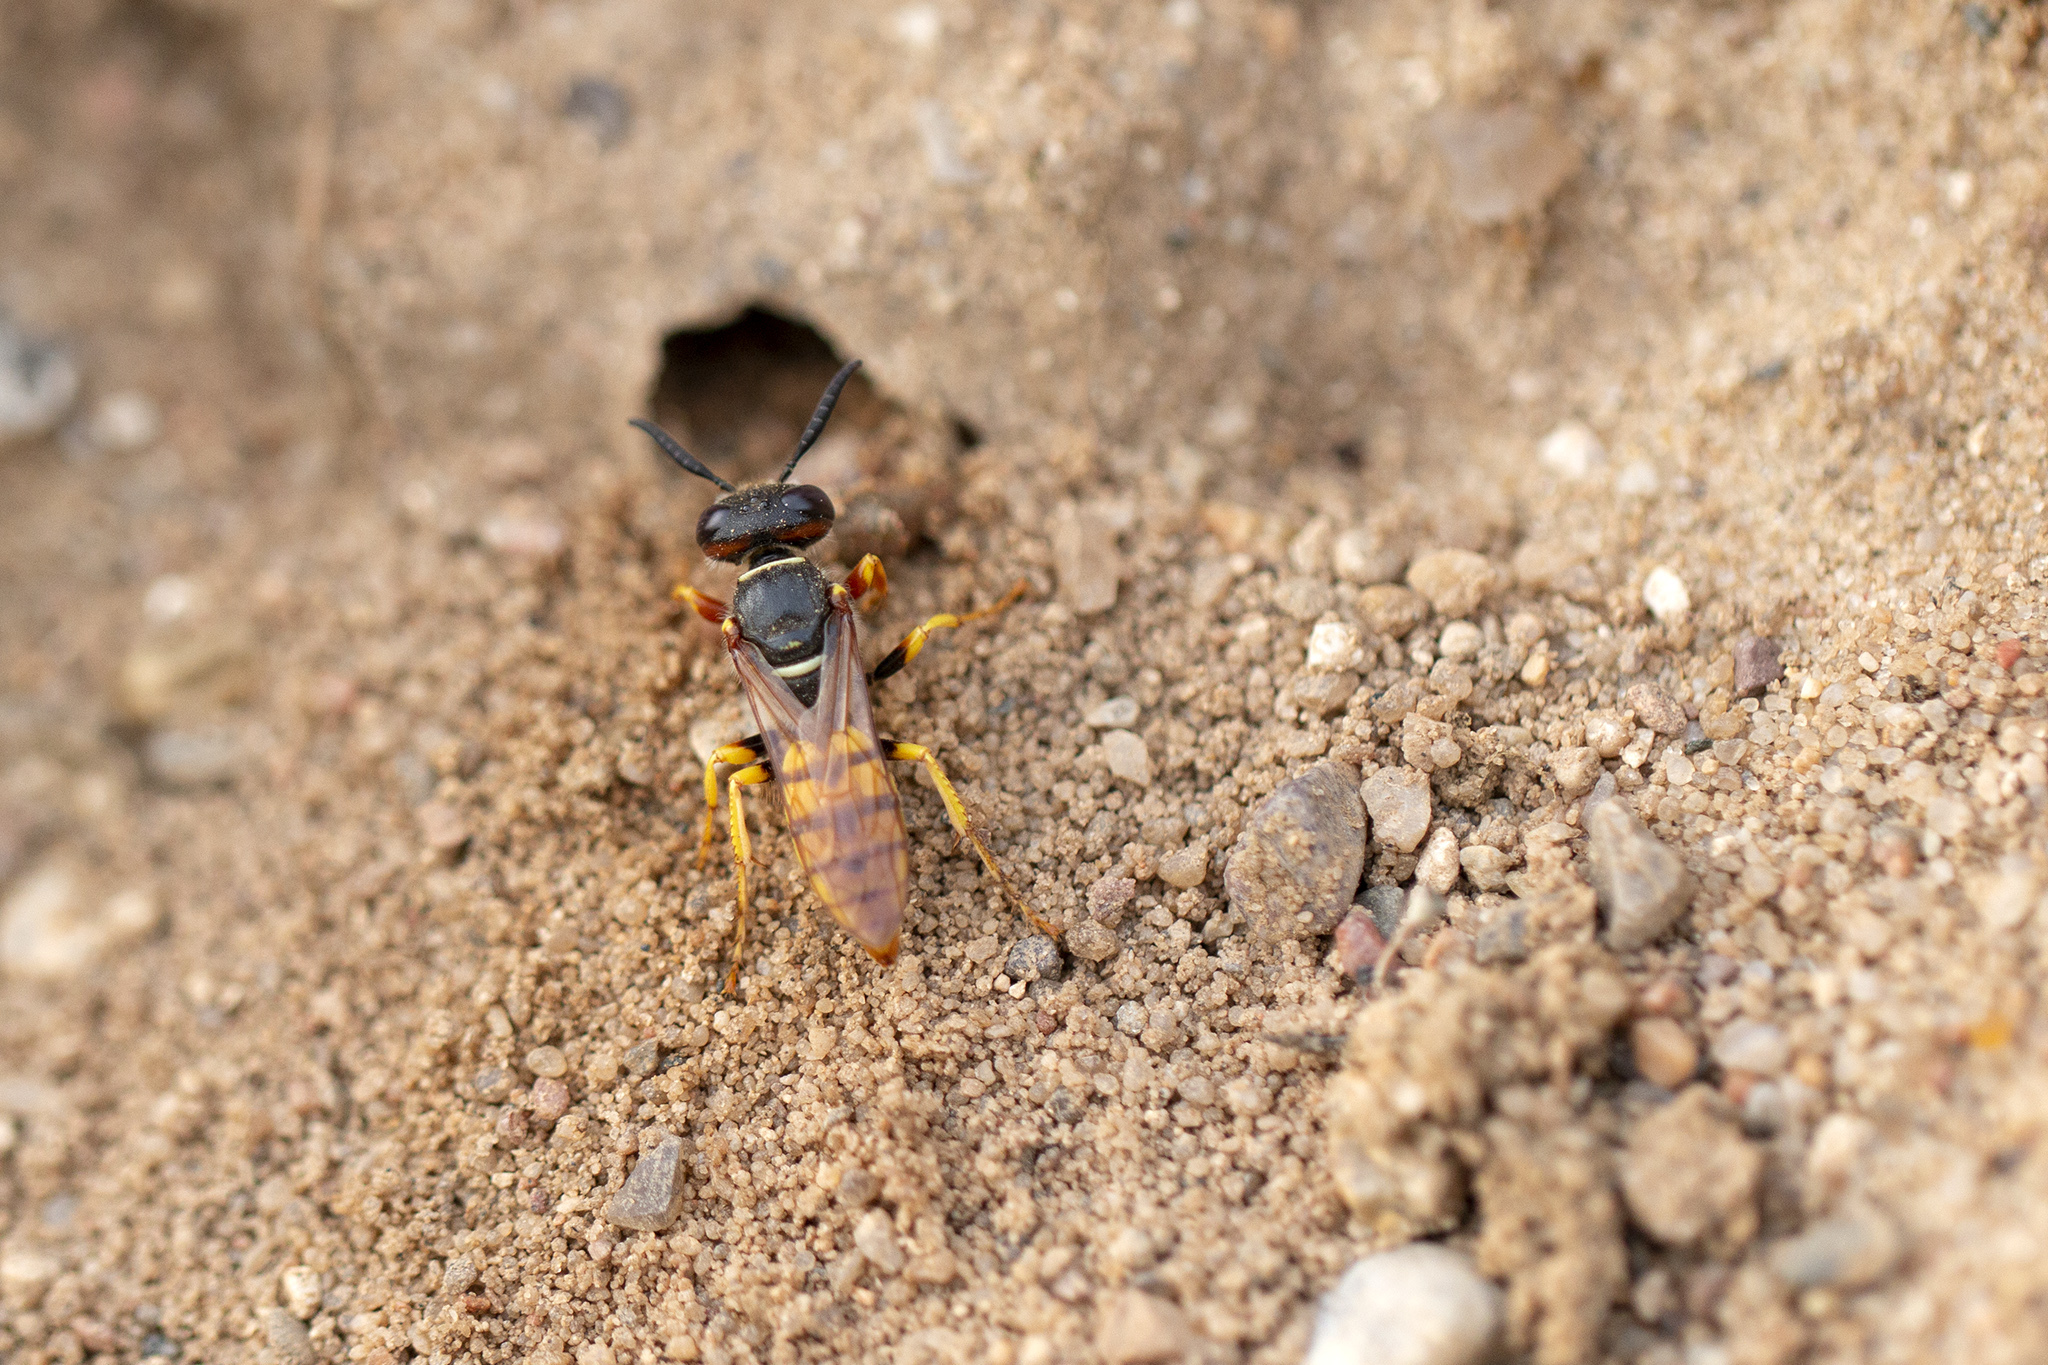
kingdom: Animalia
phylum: Arthropoda
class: Insecta
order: Hymenoptera
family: Crabronidae
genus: Philanthus
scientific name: Philanthus triangulum
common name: Bee wolf
